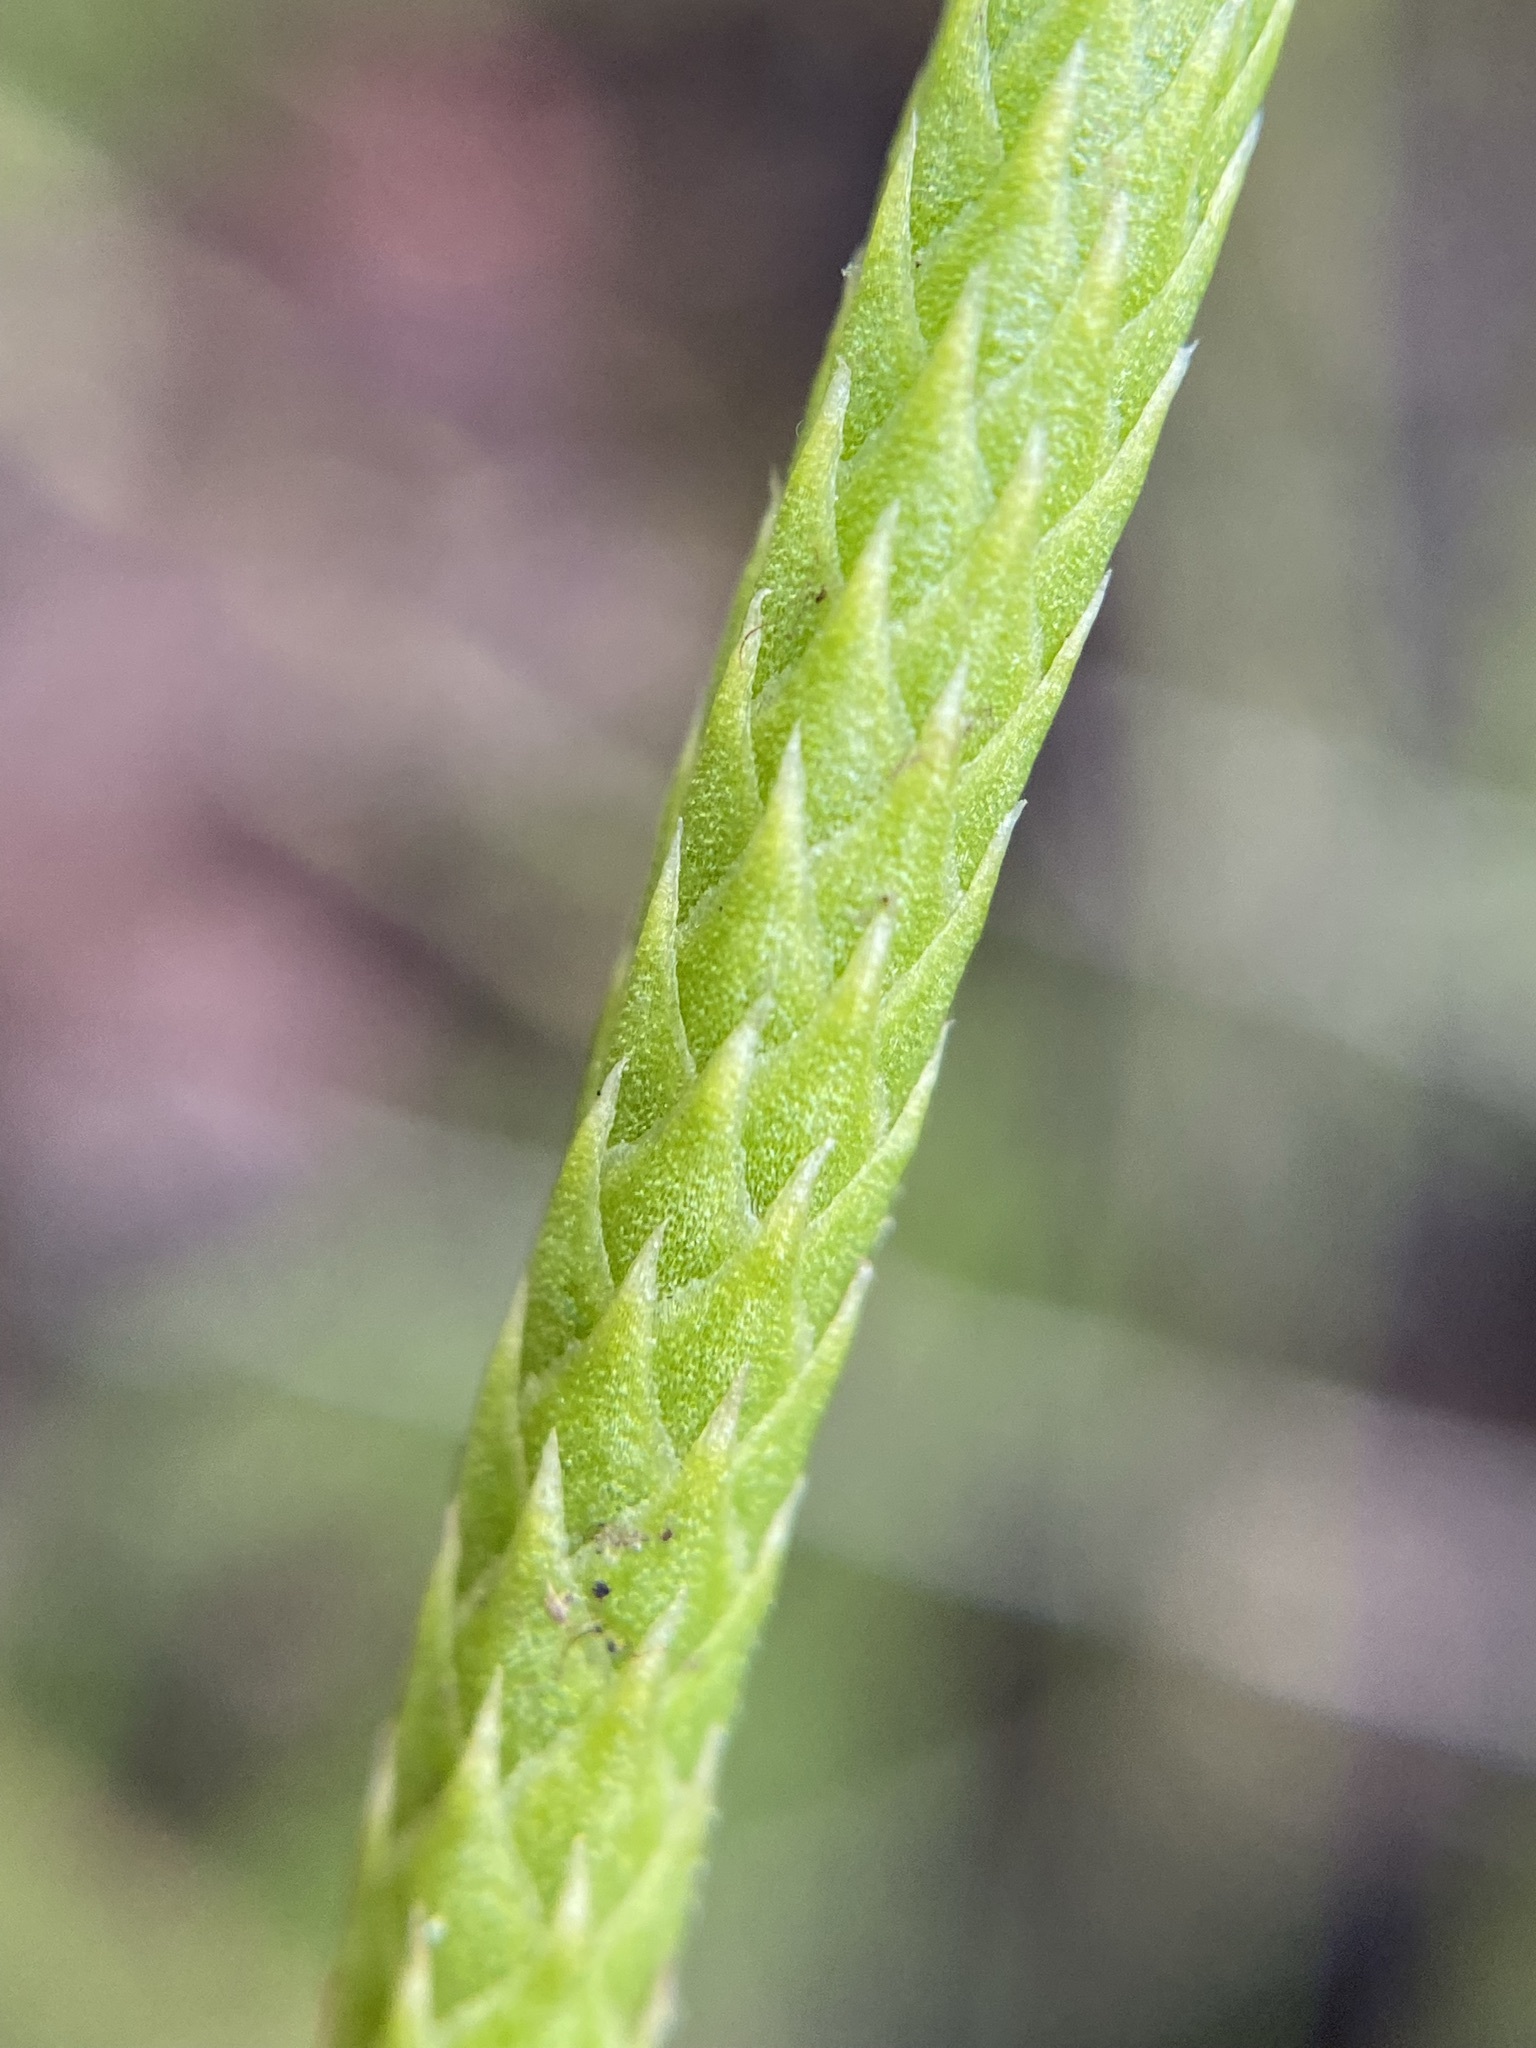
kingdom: Plantae
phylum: Tracheophyta
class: Lycopodiopsida
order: Lycopodiales
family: Lycopodiaceae
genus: Pseudolycopodiella
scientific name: Pseudolycopodiella caroliniana
